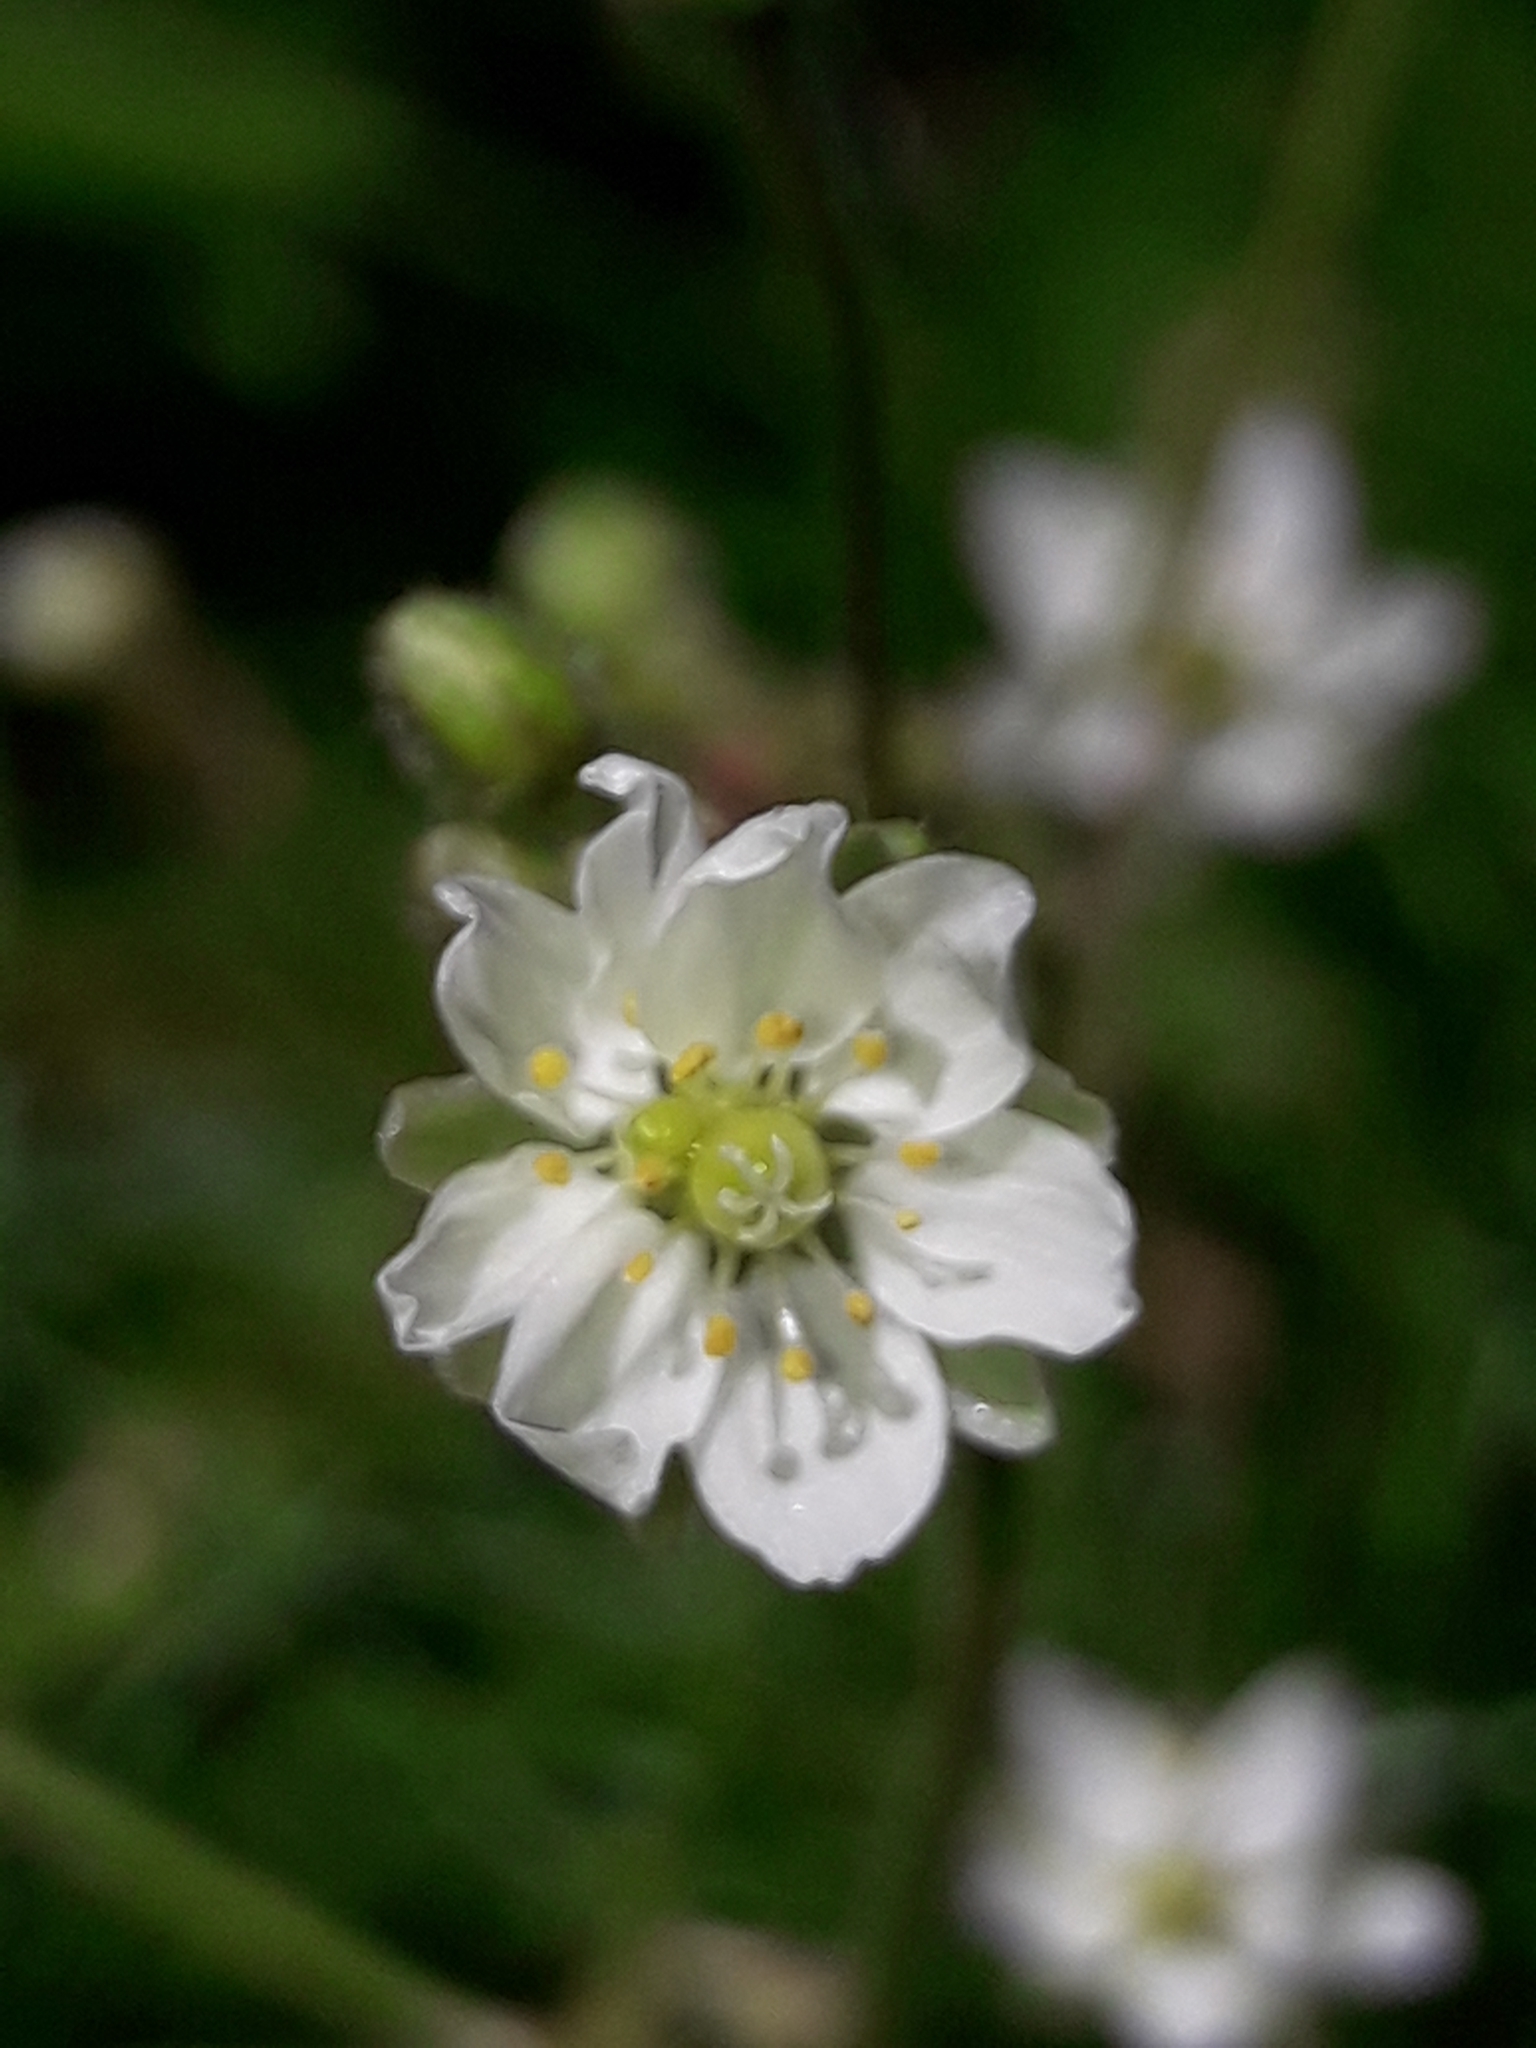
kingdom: Plantae
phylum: Tracheophyta
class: Magnoliopsida
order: Caryophyllales
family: Caryophyllaceae
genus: Spergula
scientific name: Spergula arvensis
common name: Corn spurrey
